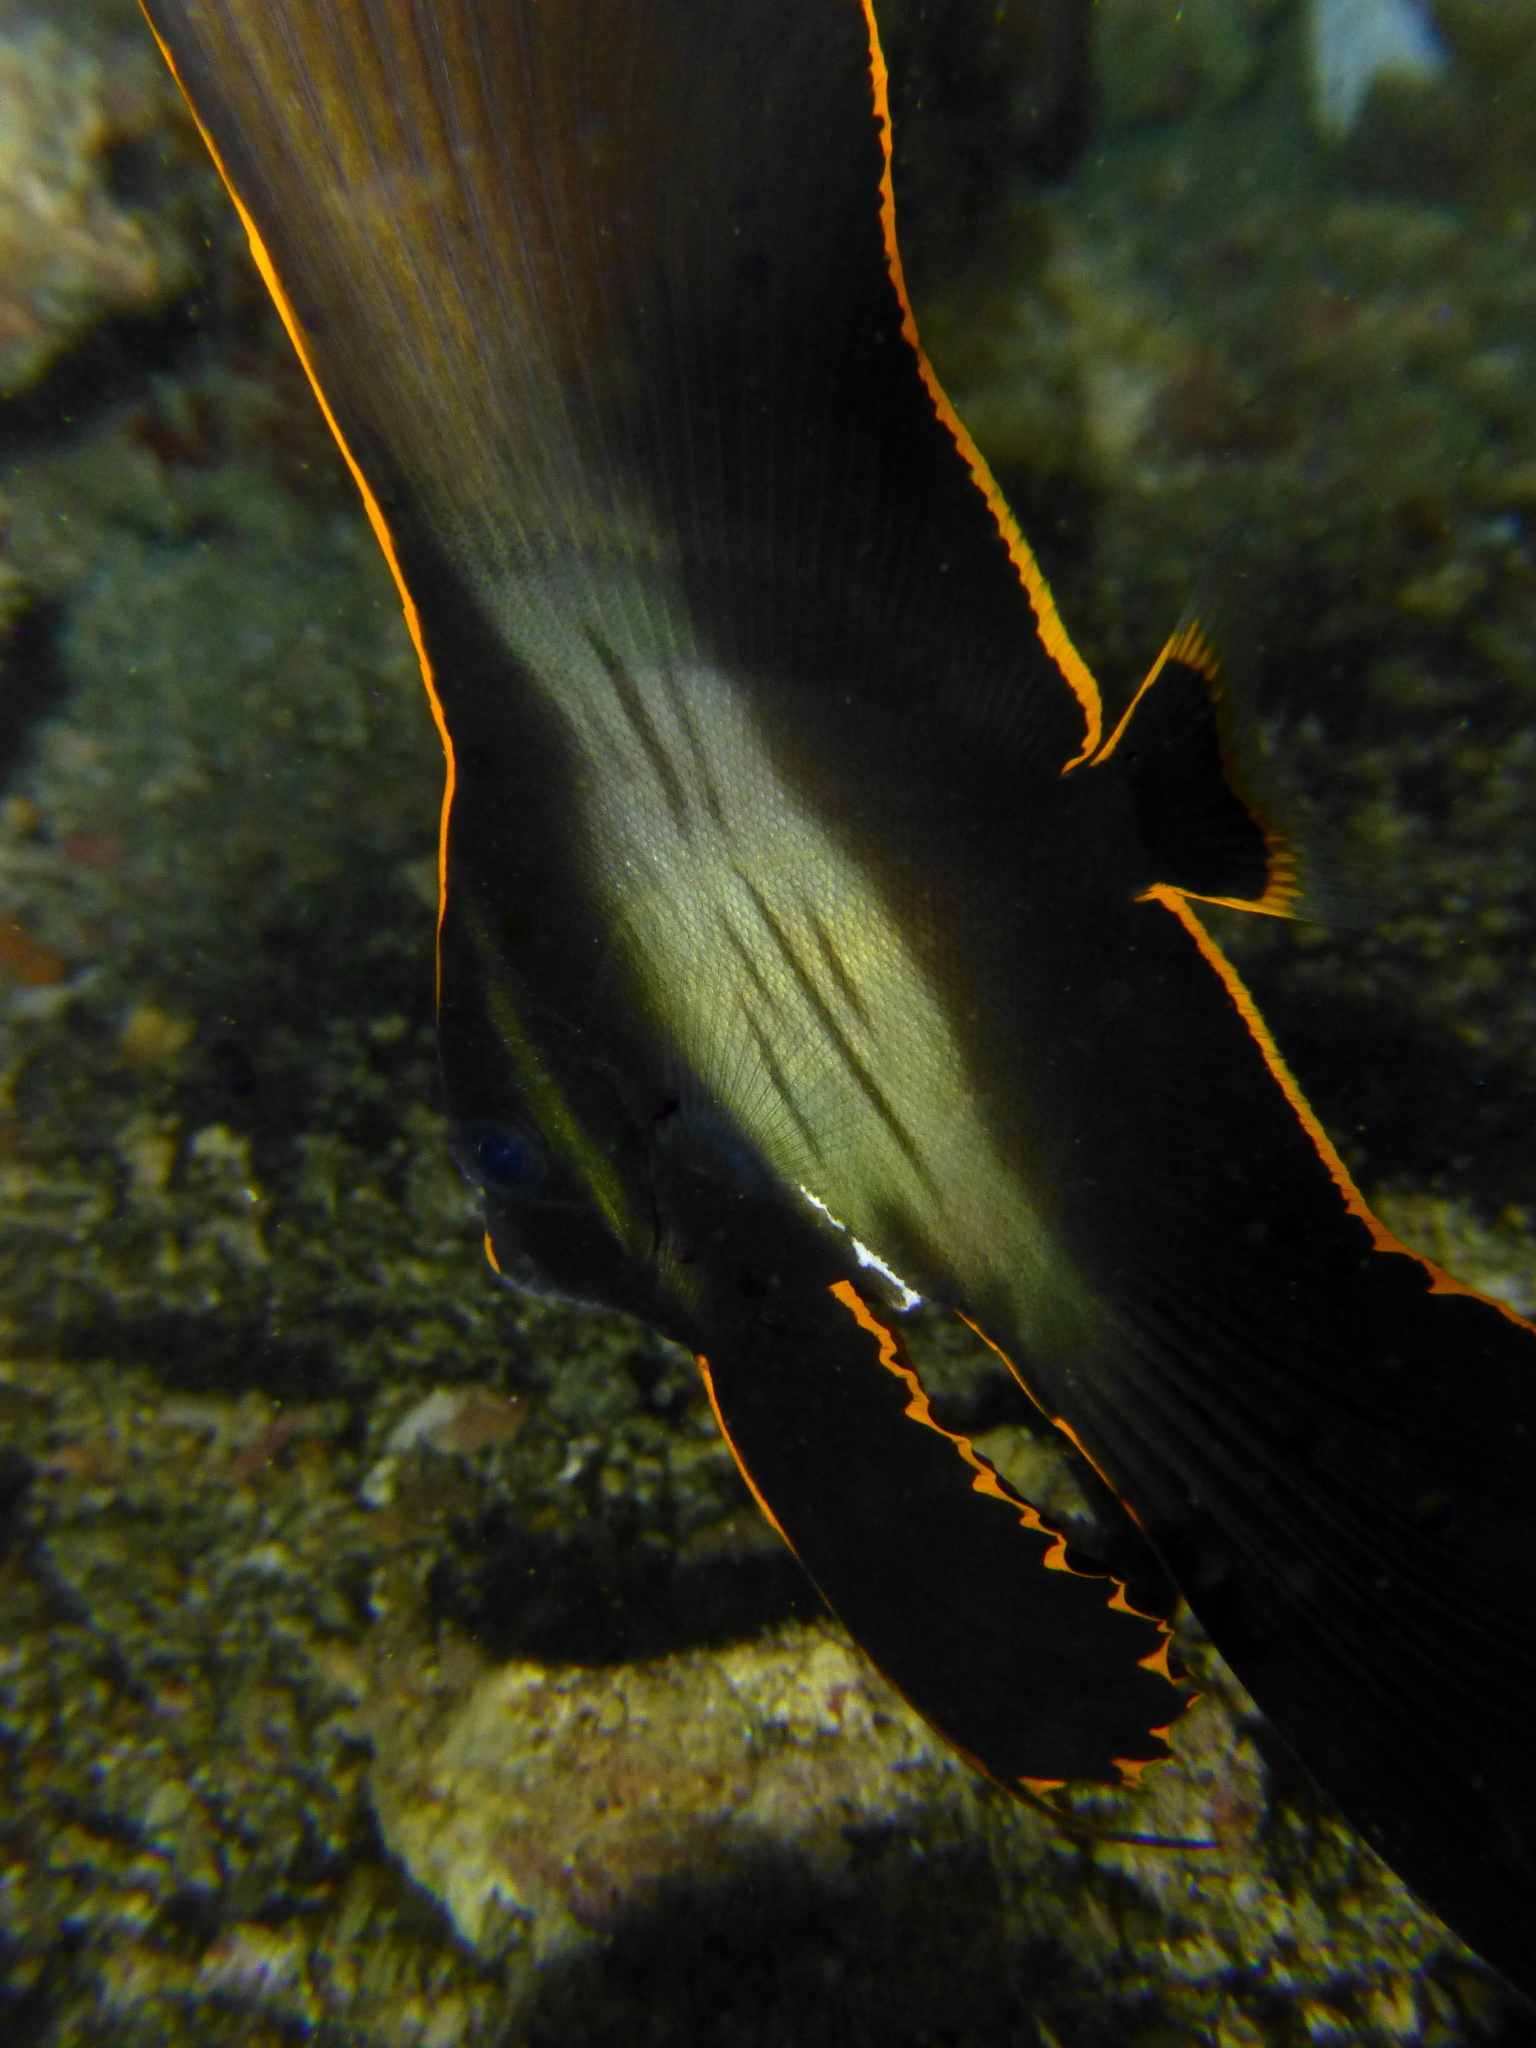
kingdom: Animalia
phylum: Chordata
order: Perciformes
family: Ephippidae
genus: Platax
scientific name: Platax pinnatus
